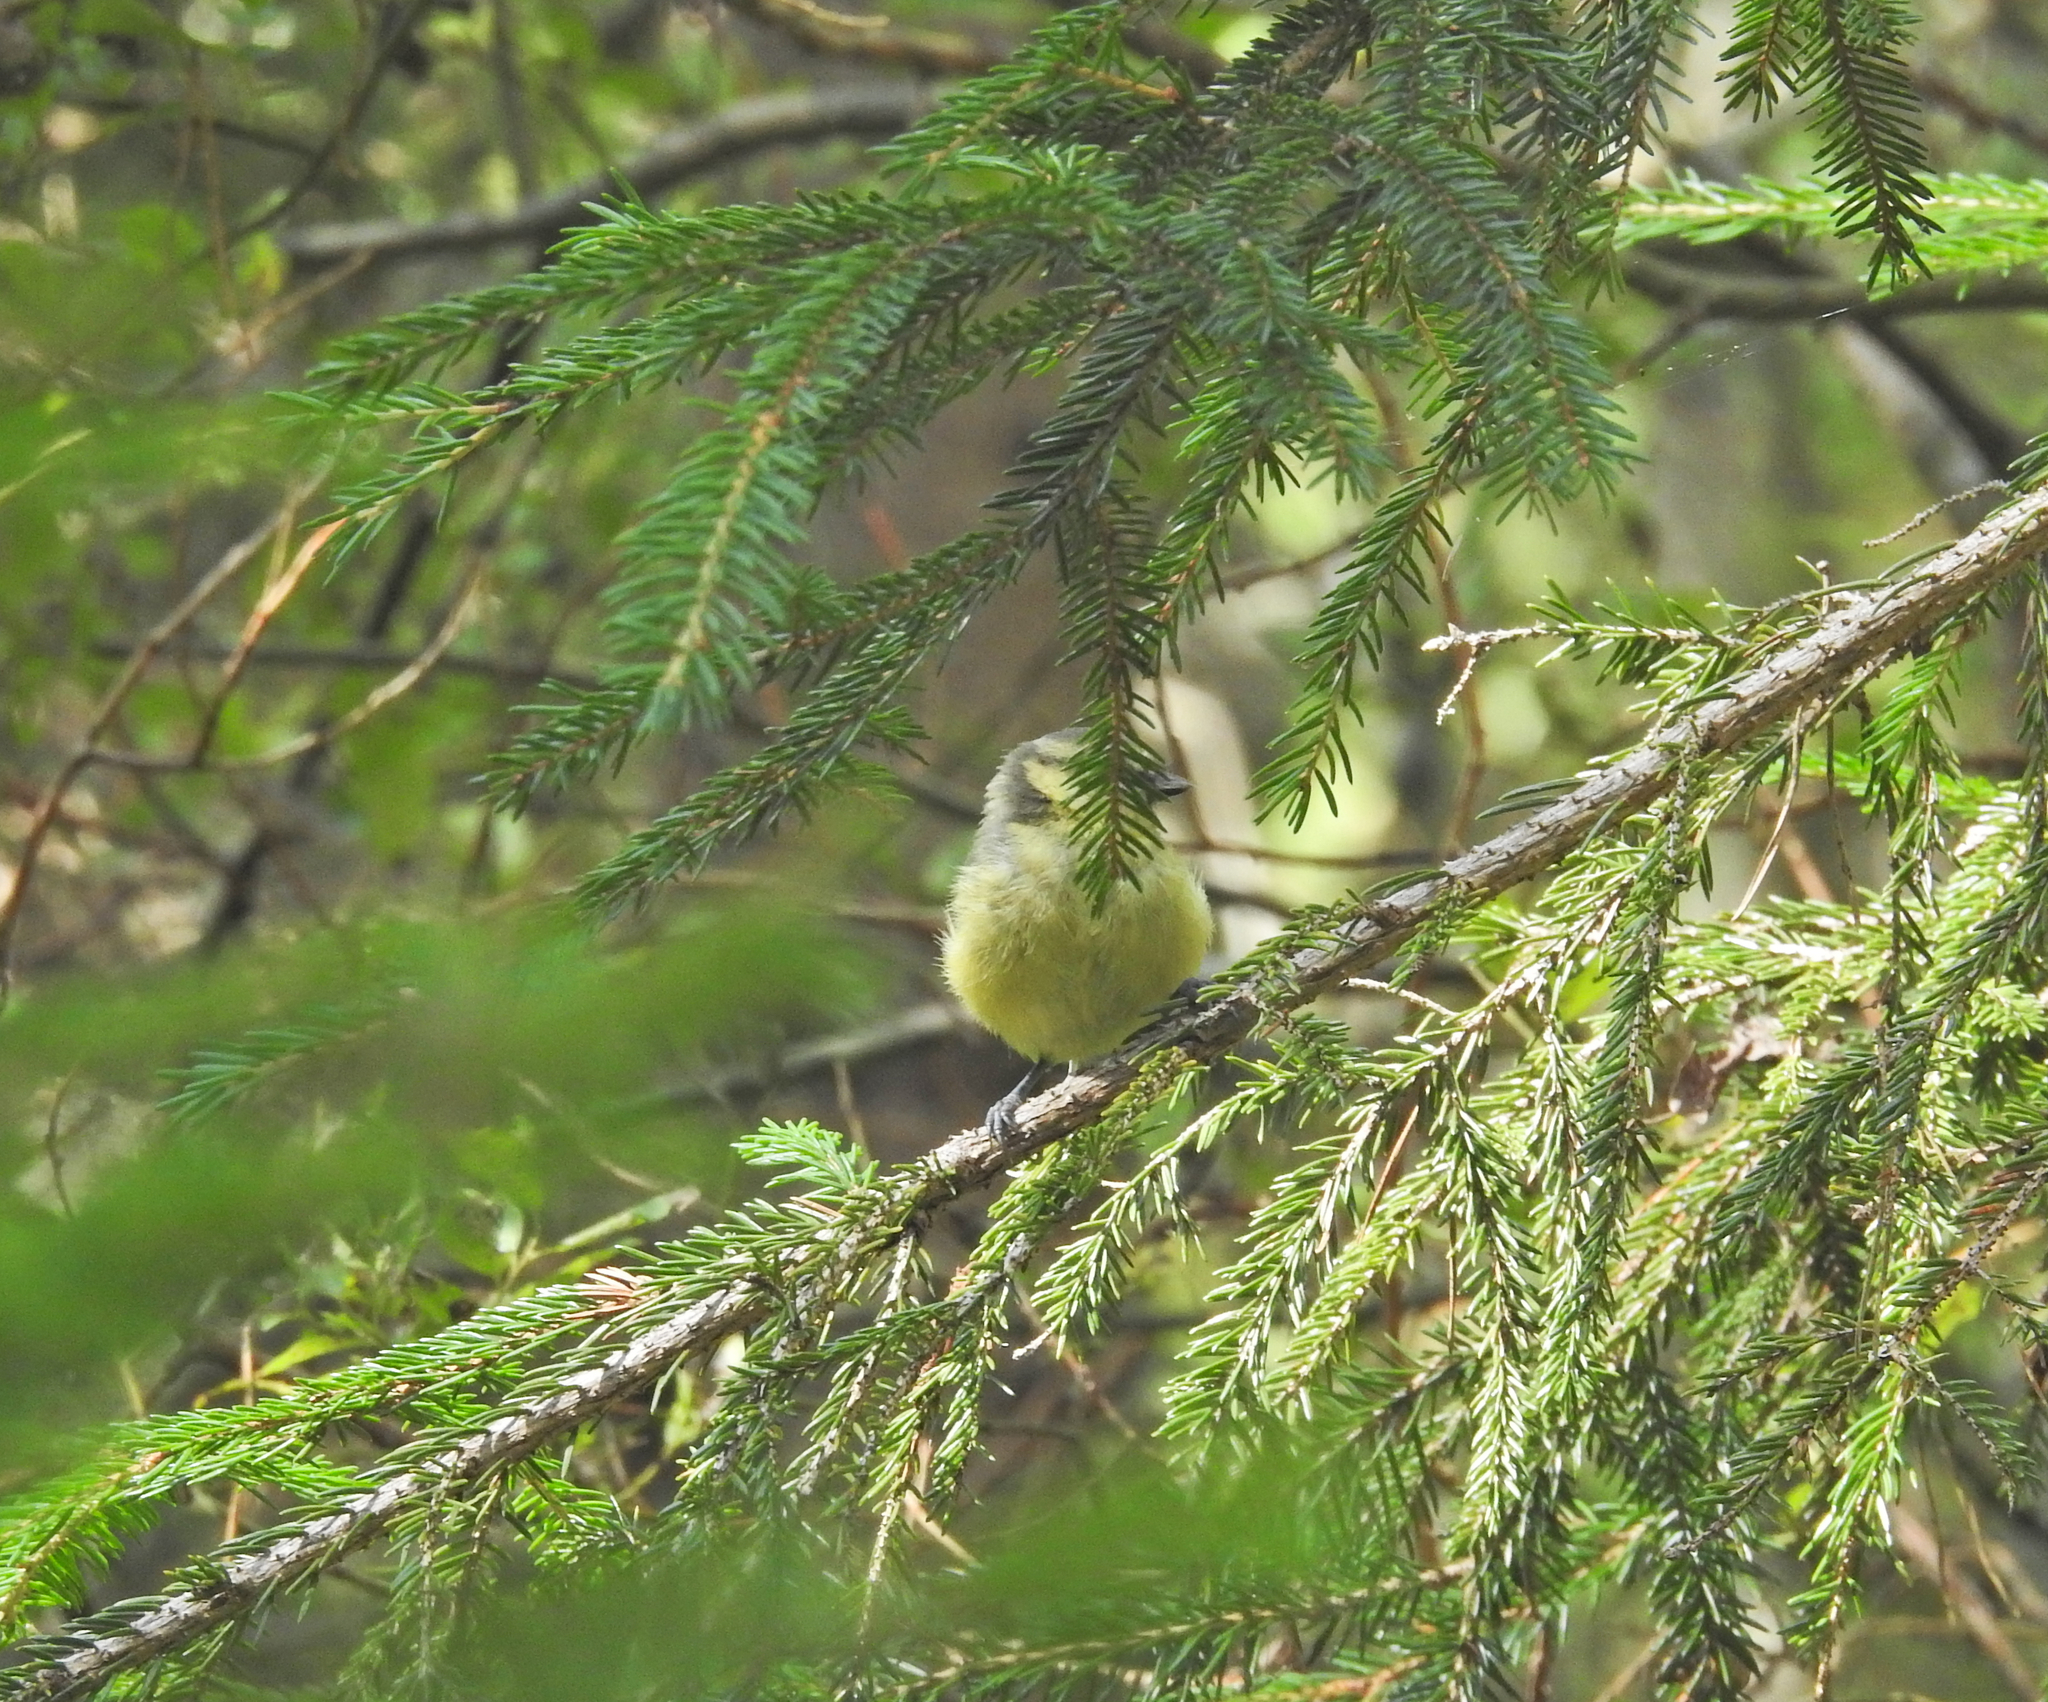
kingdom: Animalia
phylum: Chordata
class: Aves
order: Passeriformes
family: Paridae
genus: Cyanistes
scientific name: Cyanistes caeruleus
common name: Eurasian blue tit
